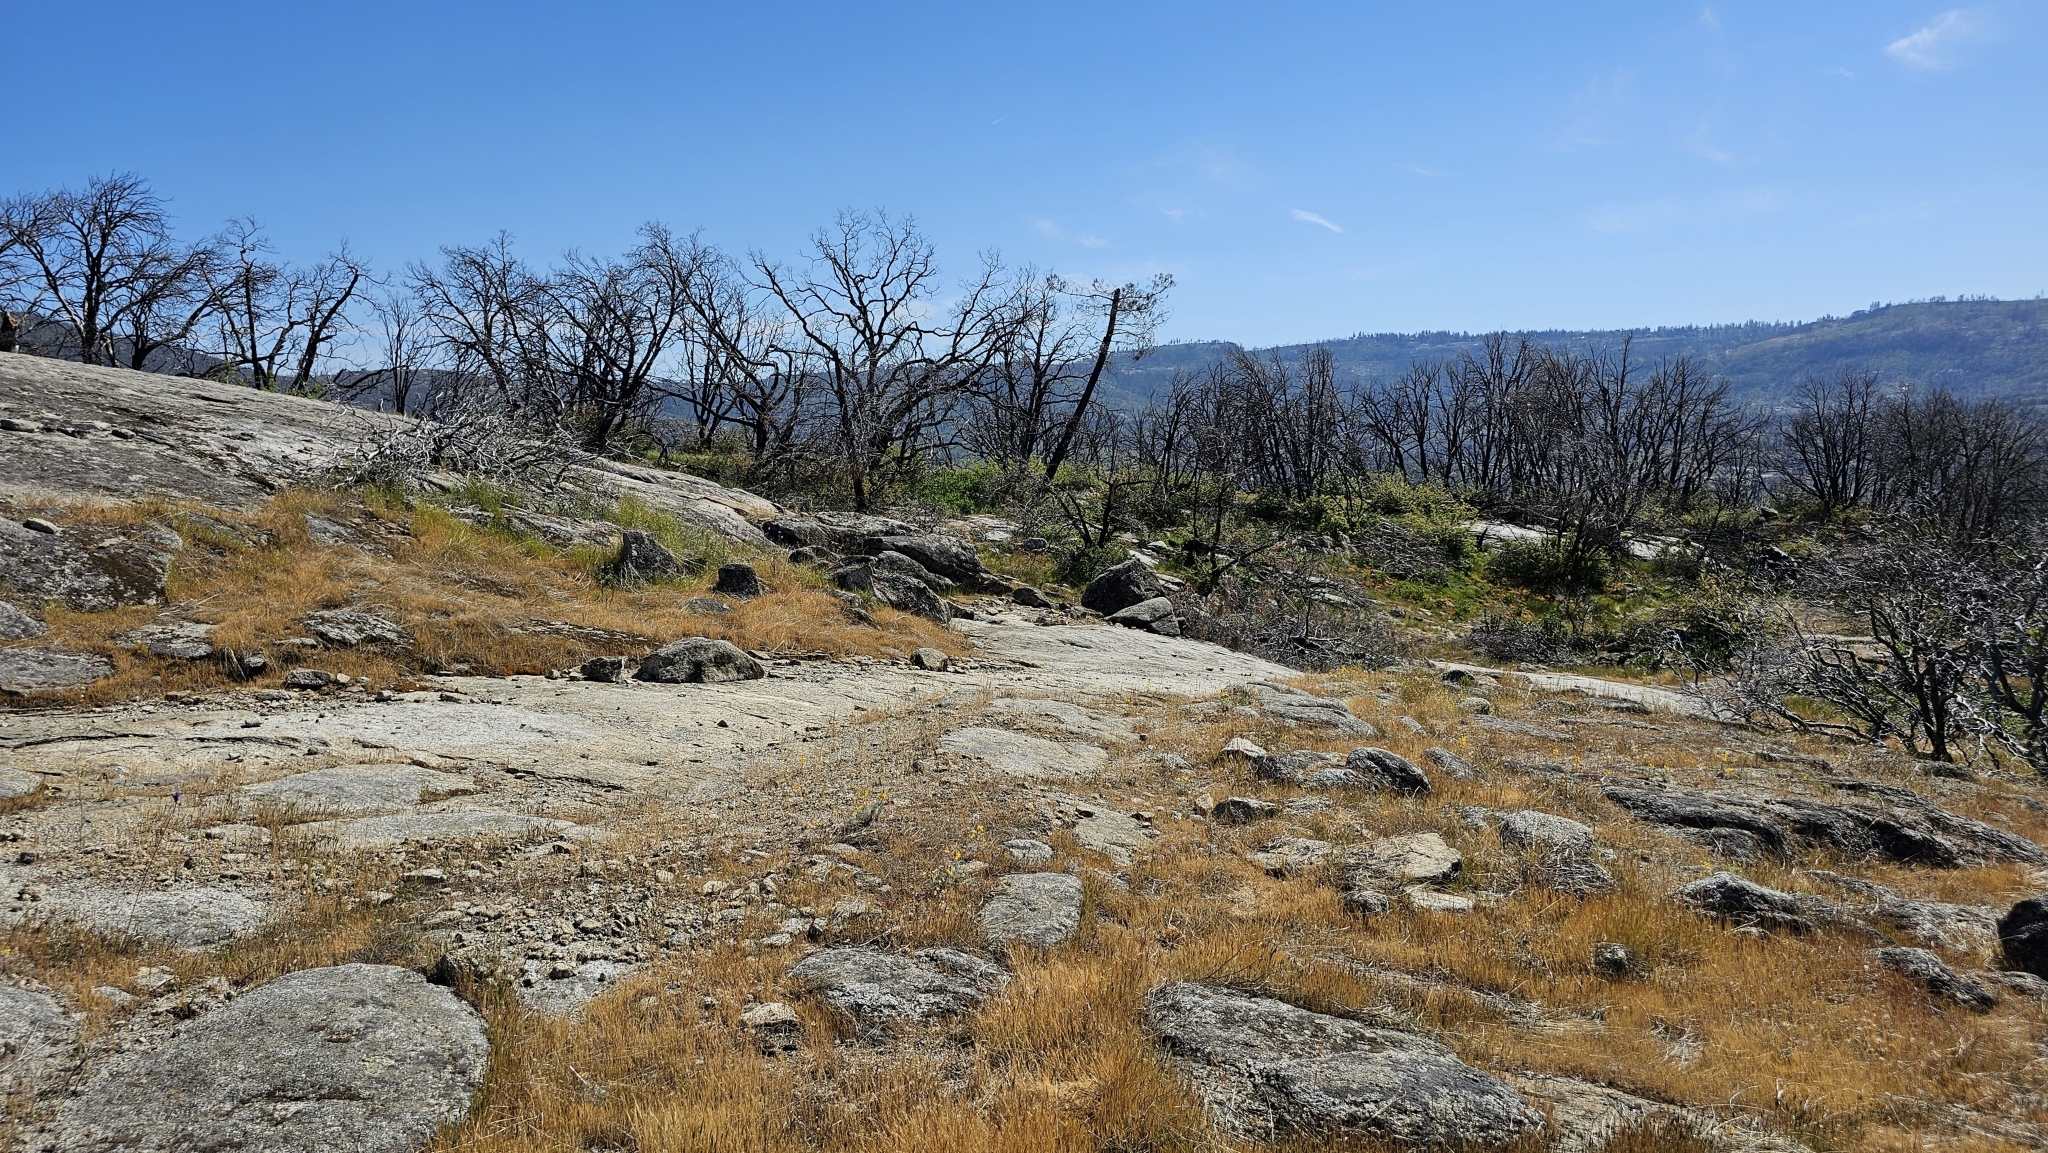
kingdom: Plantae
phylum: Tracheophyta
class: Magnoliopsida
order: Fabales
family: Fabaceae
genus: Lupinus
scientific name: Lupinus citrinus
